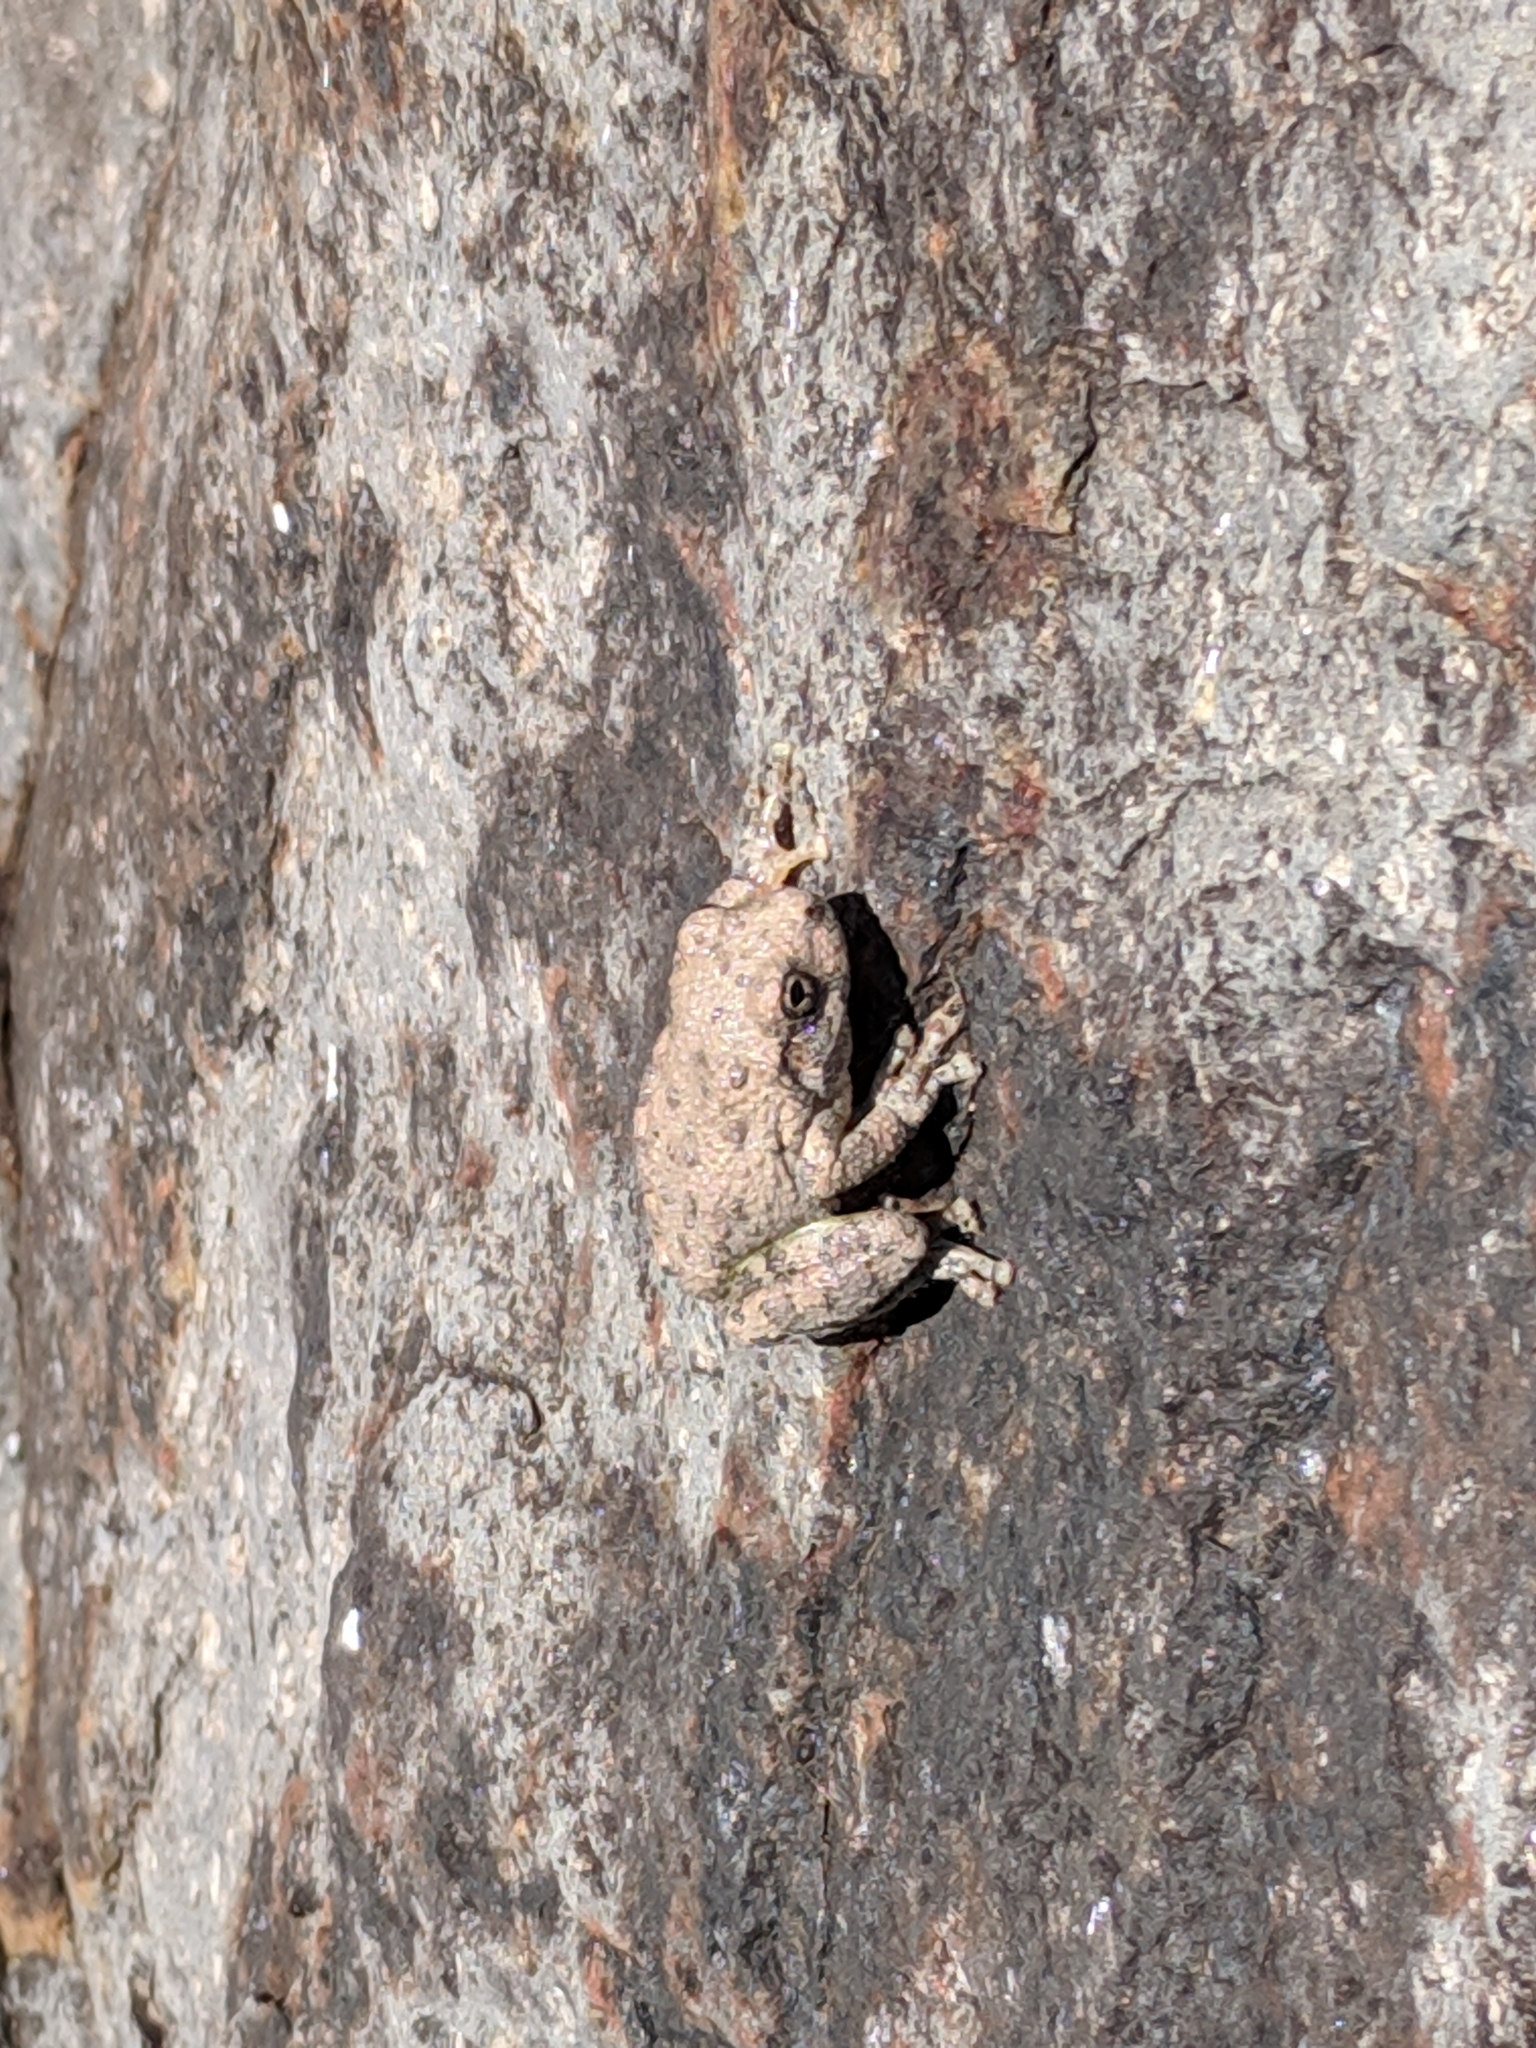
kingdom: Animalia
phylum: Chordata
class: Amphibia
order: Anura
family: Hylidae
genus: Dryophytes
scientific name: Dryophytes arenicolor
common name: Canyon treefrog
